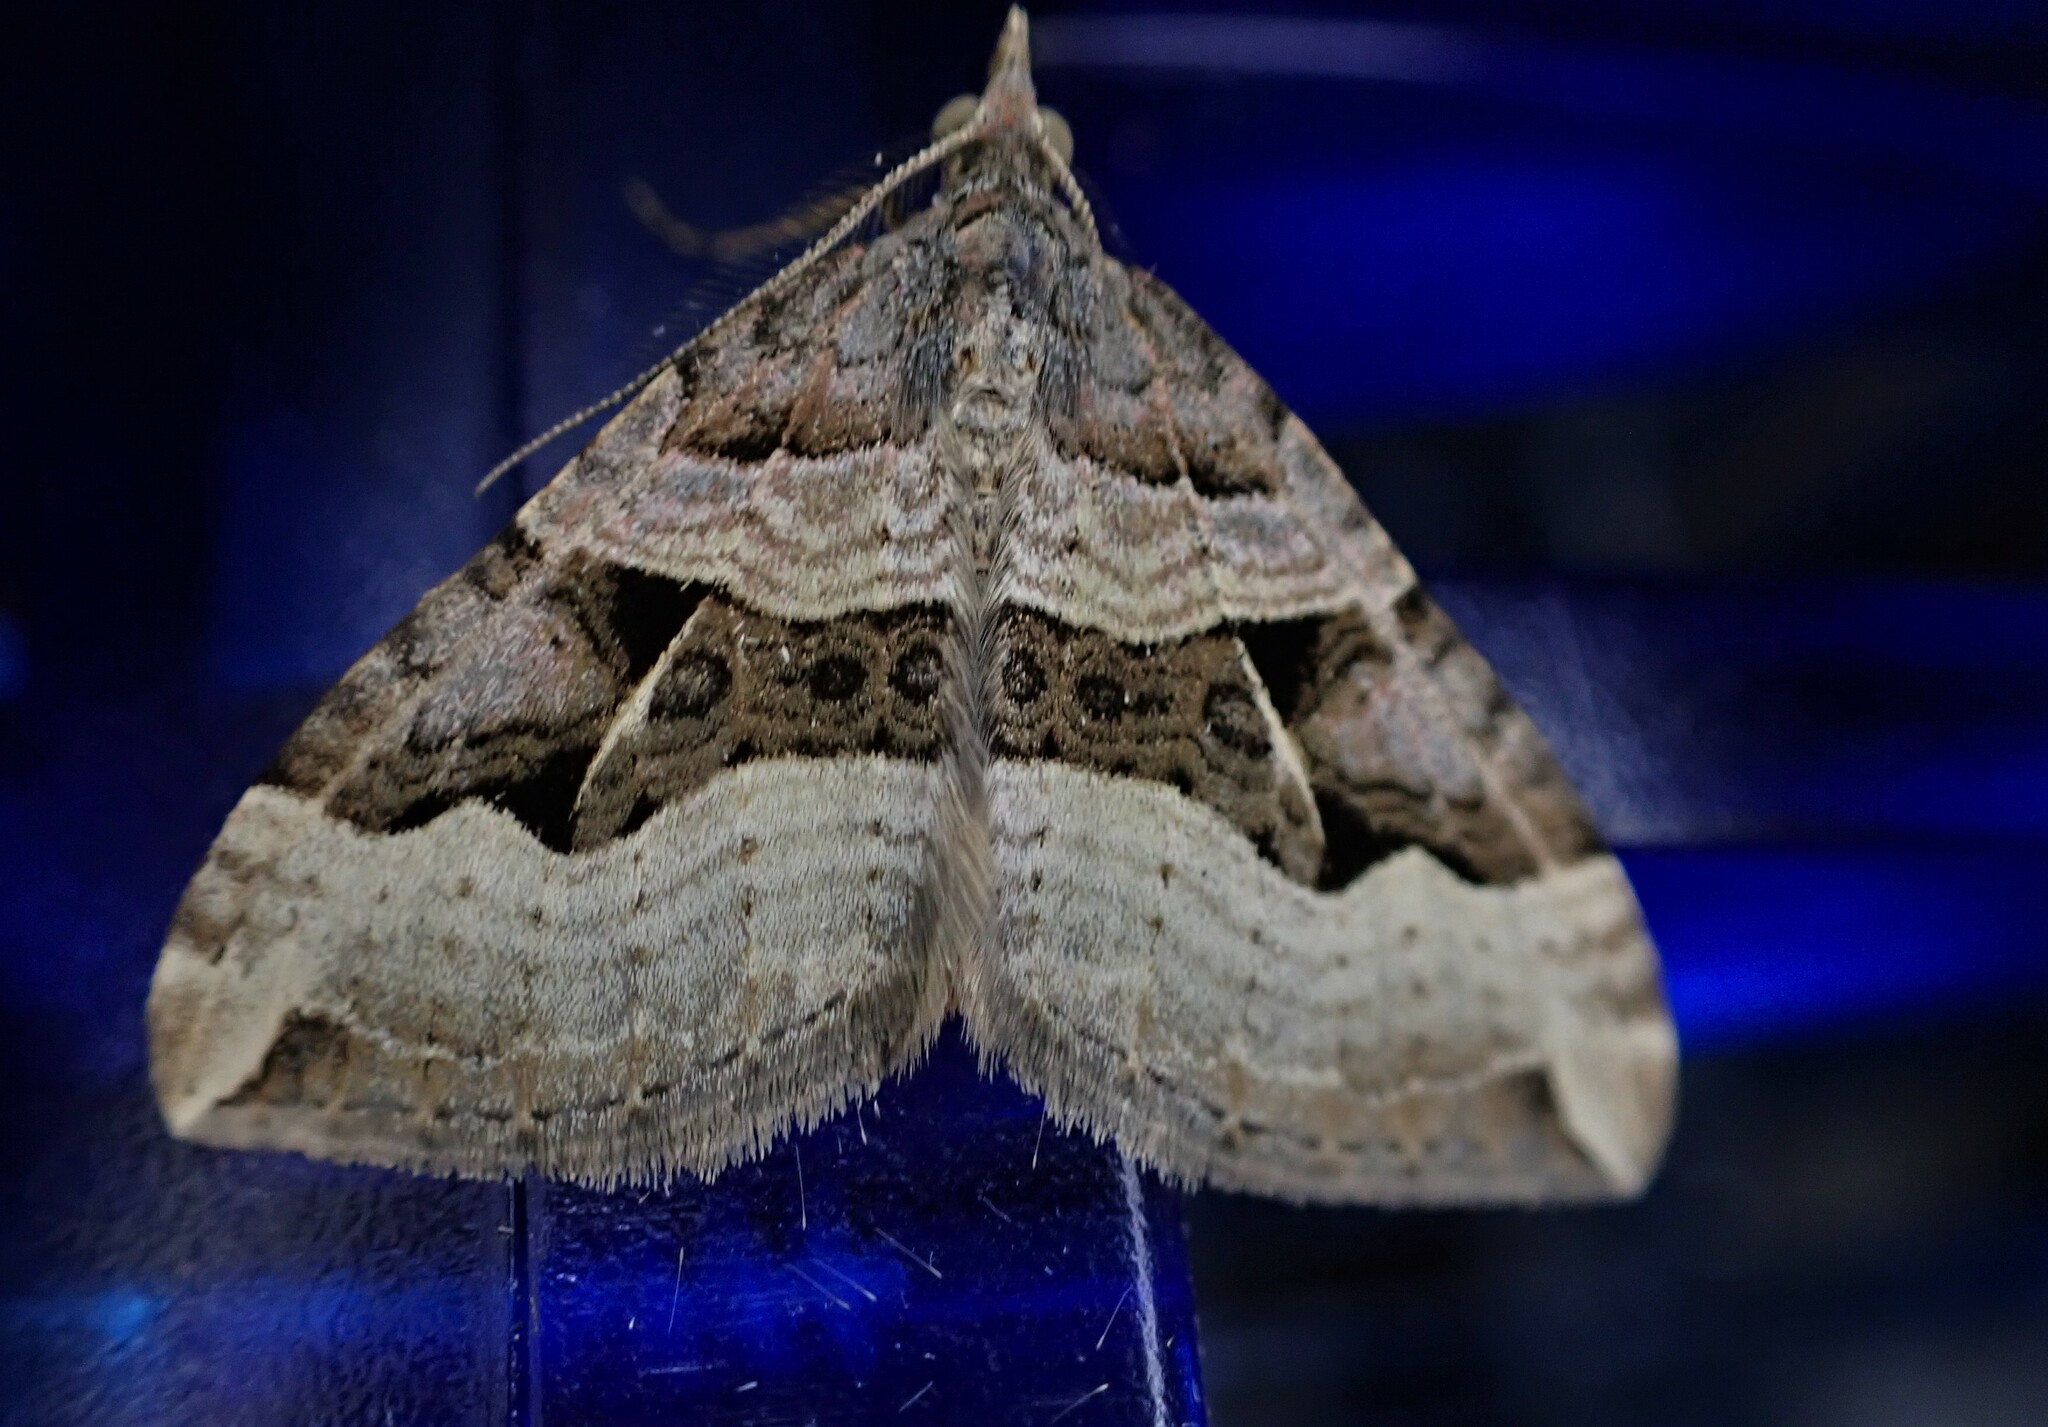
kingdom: Animalia
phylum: Arthropoda
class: Insecta
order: Lepidoptera
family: Geometridae
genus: Xanthorhoe
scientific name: Xanthorhoe semifissata
